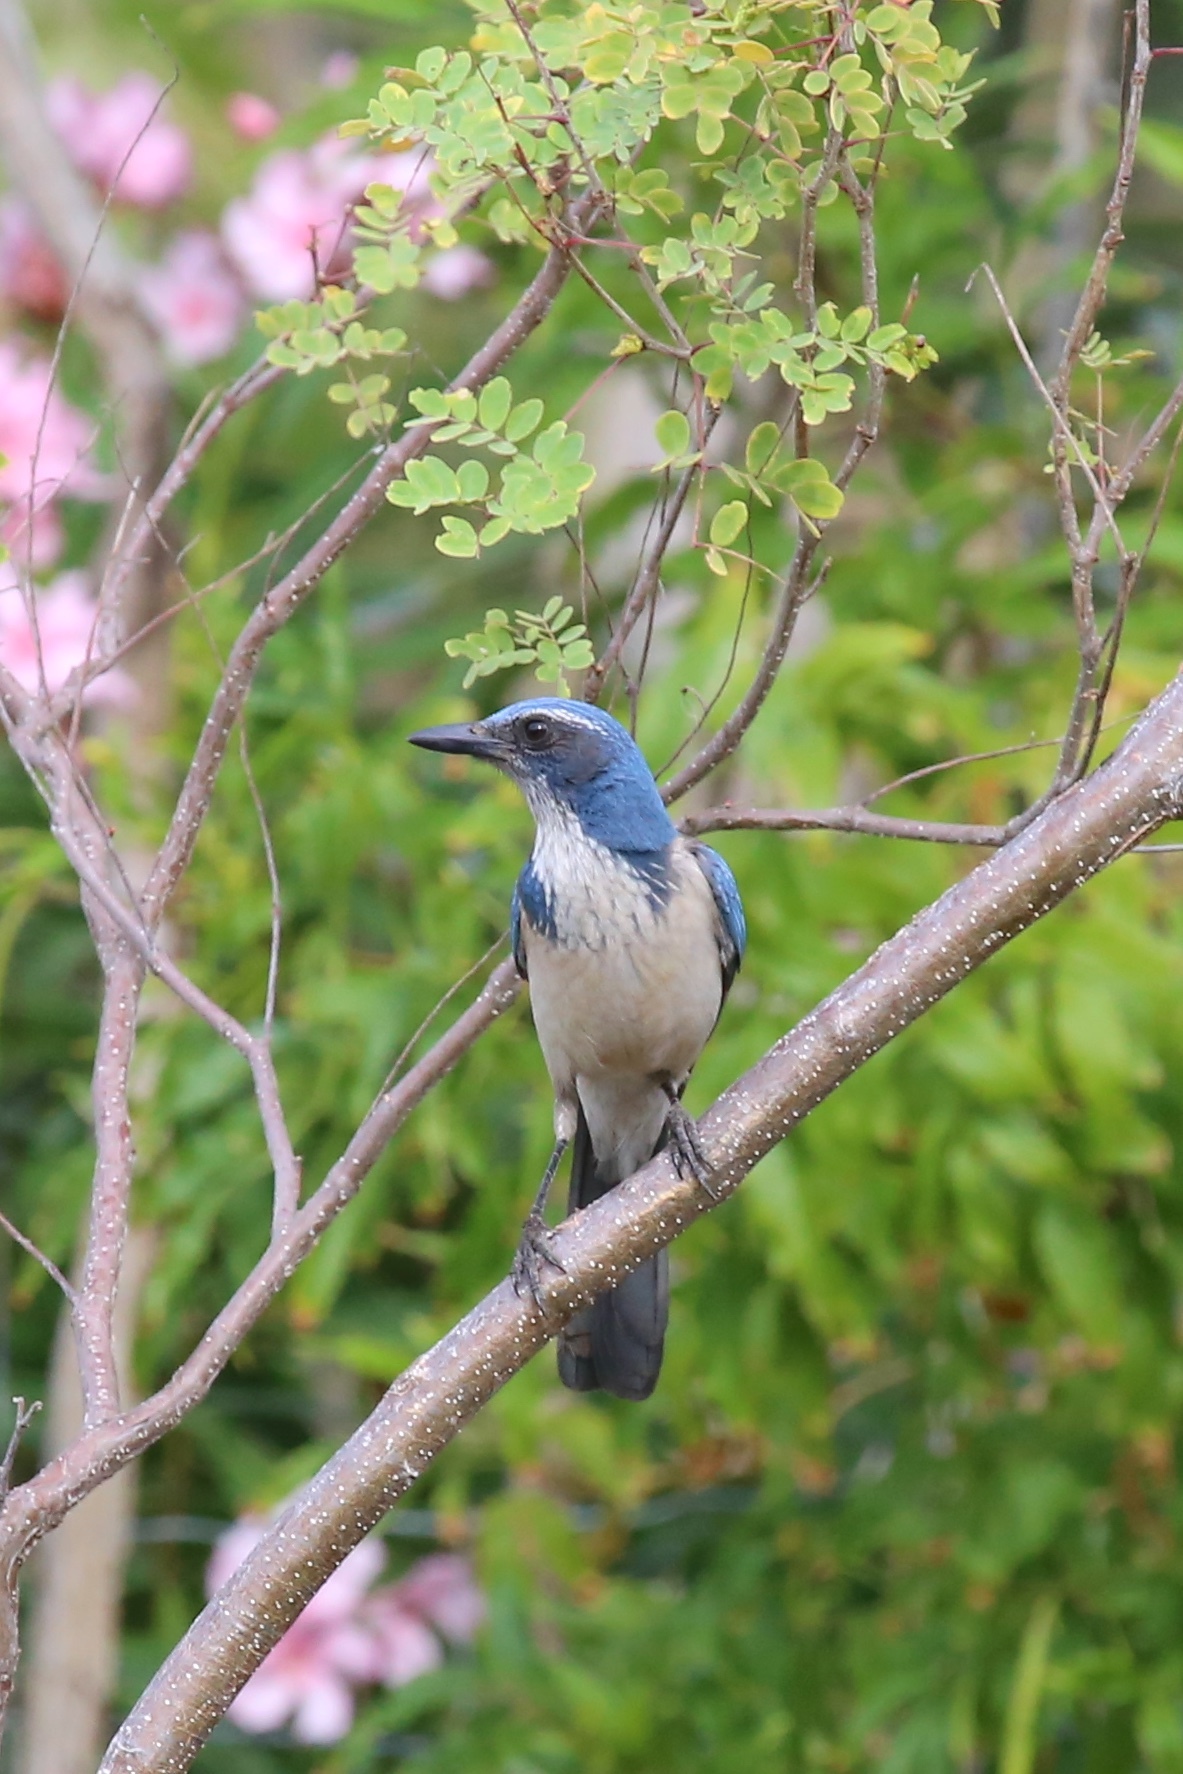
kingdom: Animalia
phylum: Chordata
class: Aves
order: Passeriformes
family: Corvidae
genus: Aphelocoma
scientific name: Aphelocoma californica
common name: California scrub-jay
